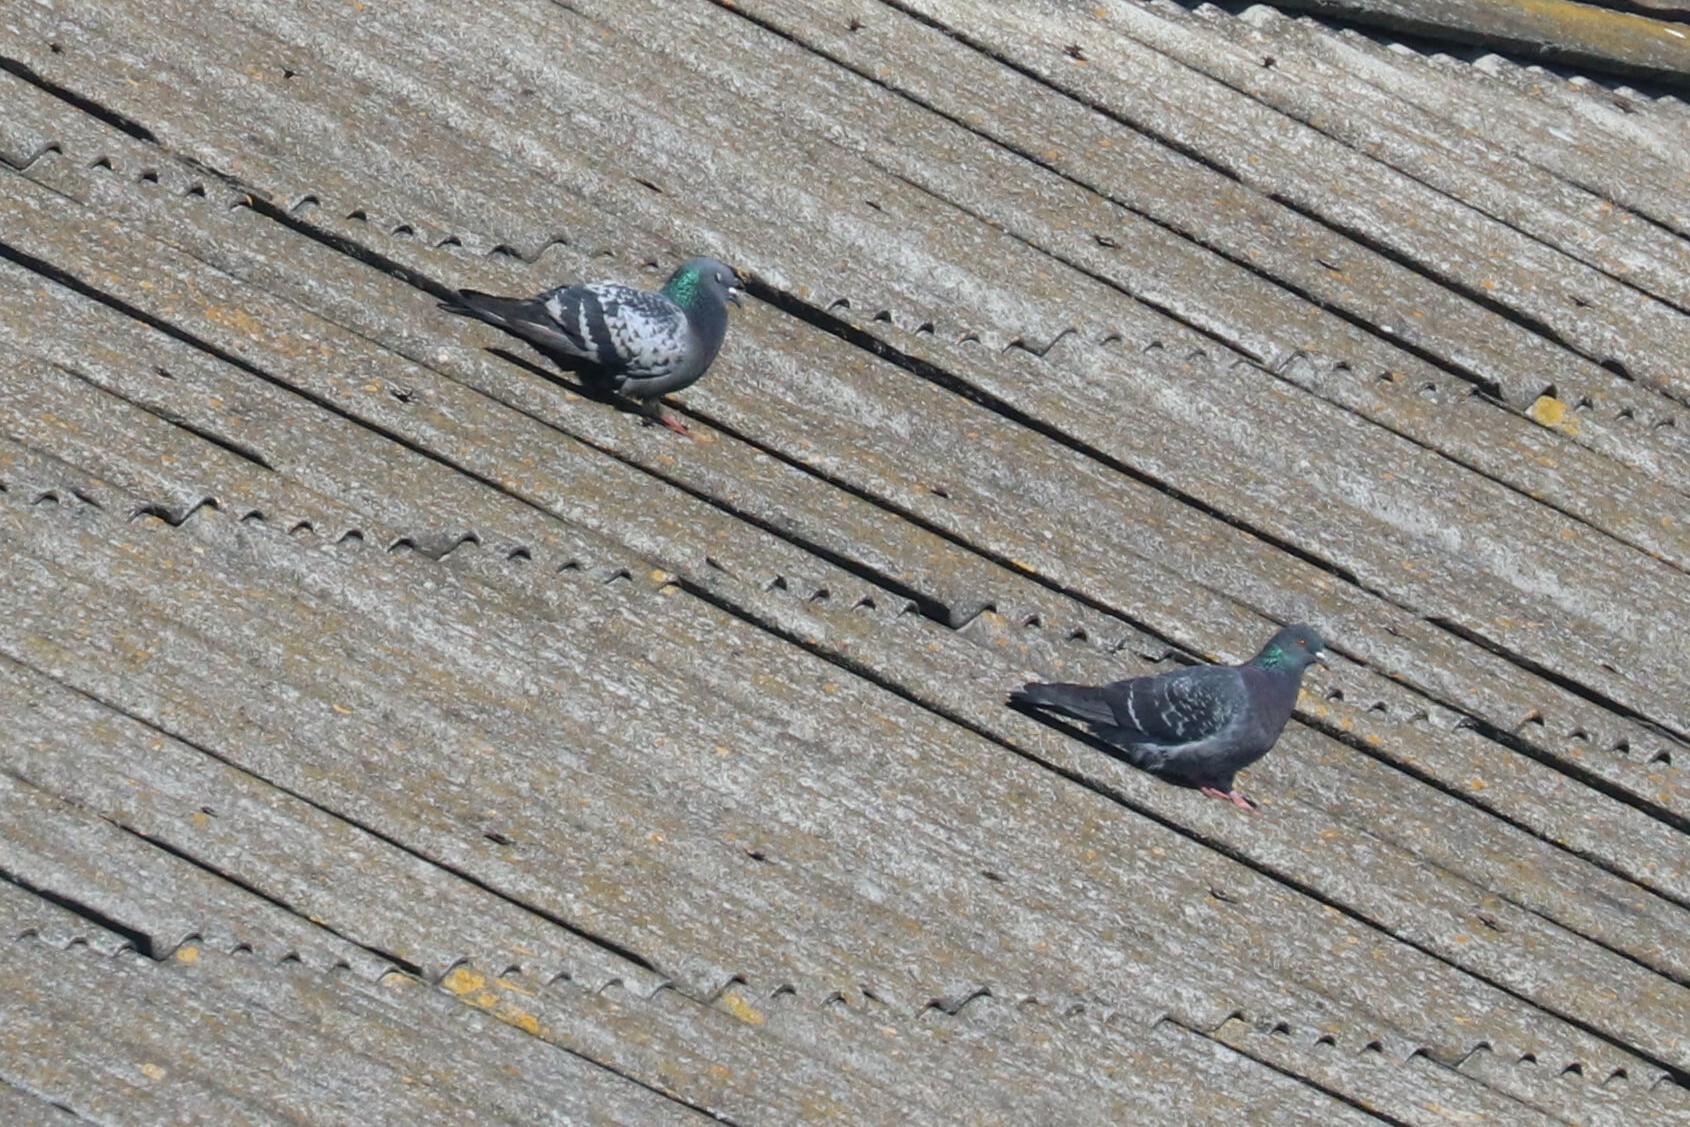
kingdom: Animalia
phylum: Chordata
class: Aves
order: Columbiformes
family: Columbidae
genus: Columba
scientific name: Columba livia
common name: Rock pigeon
